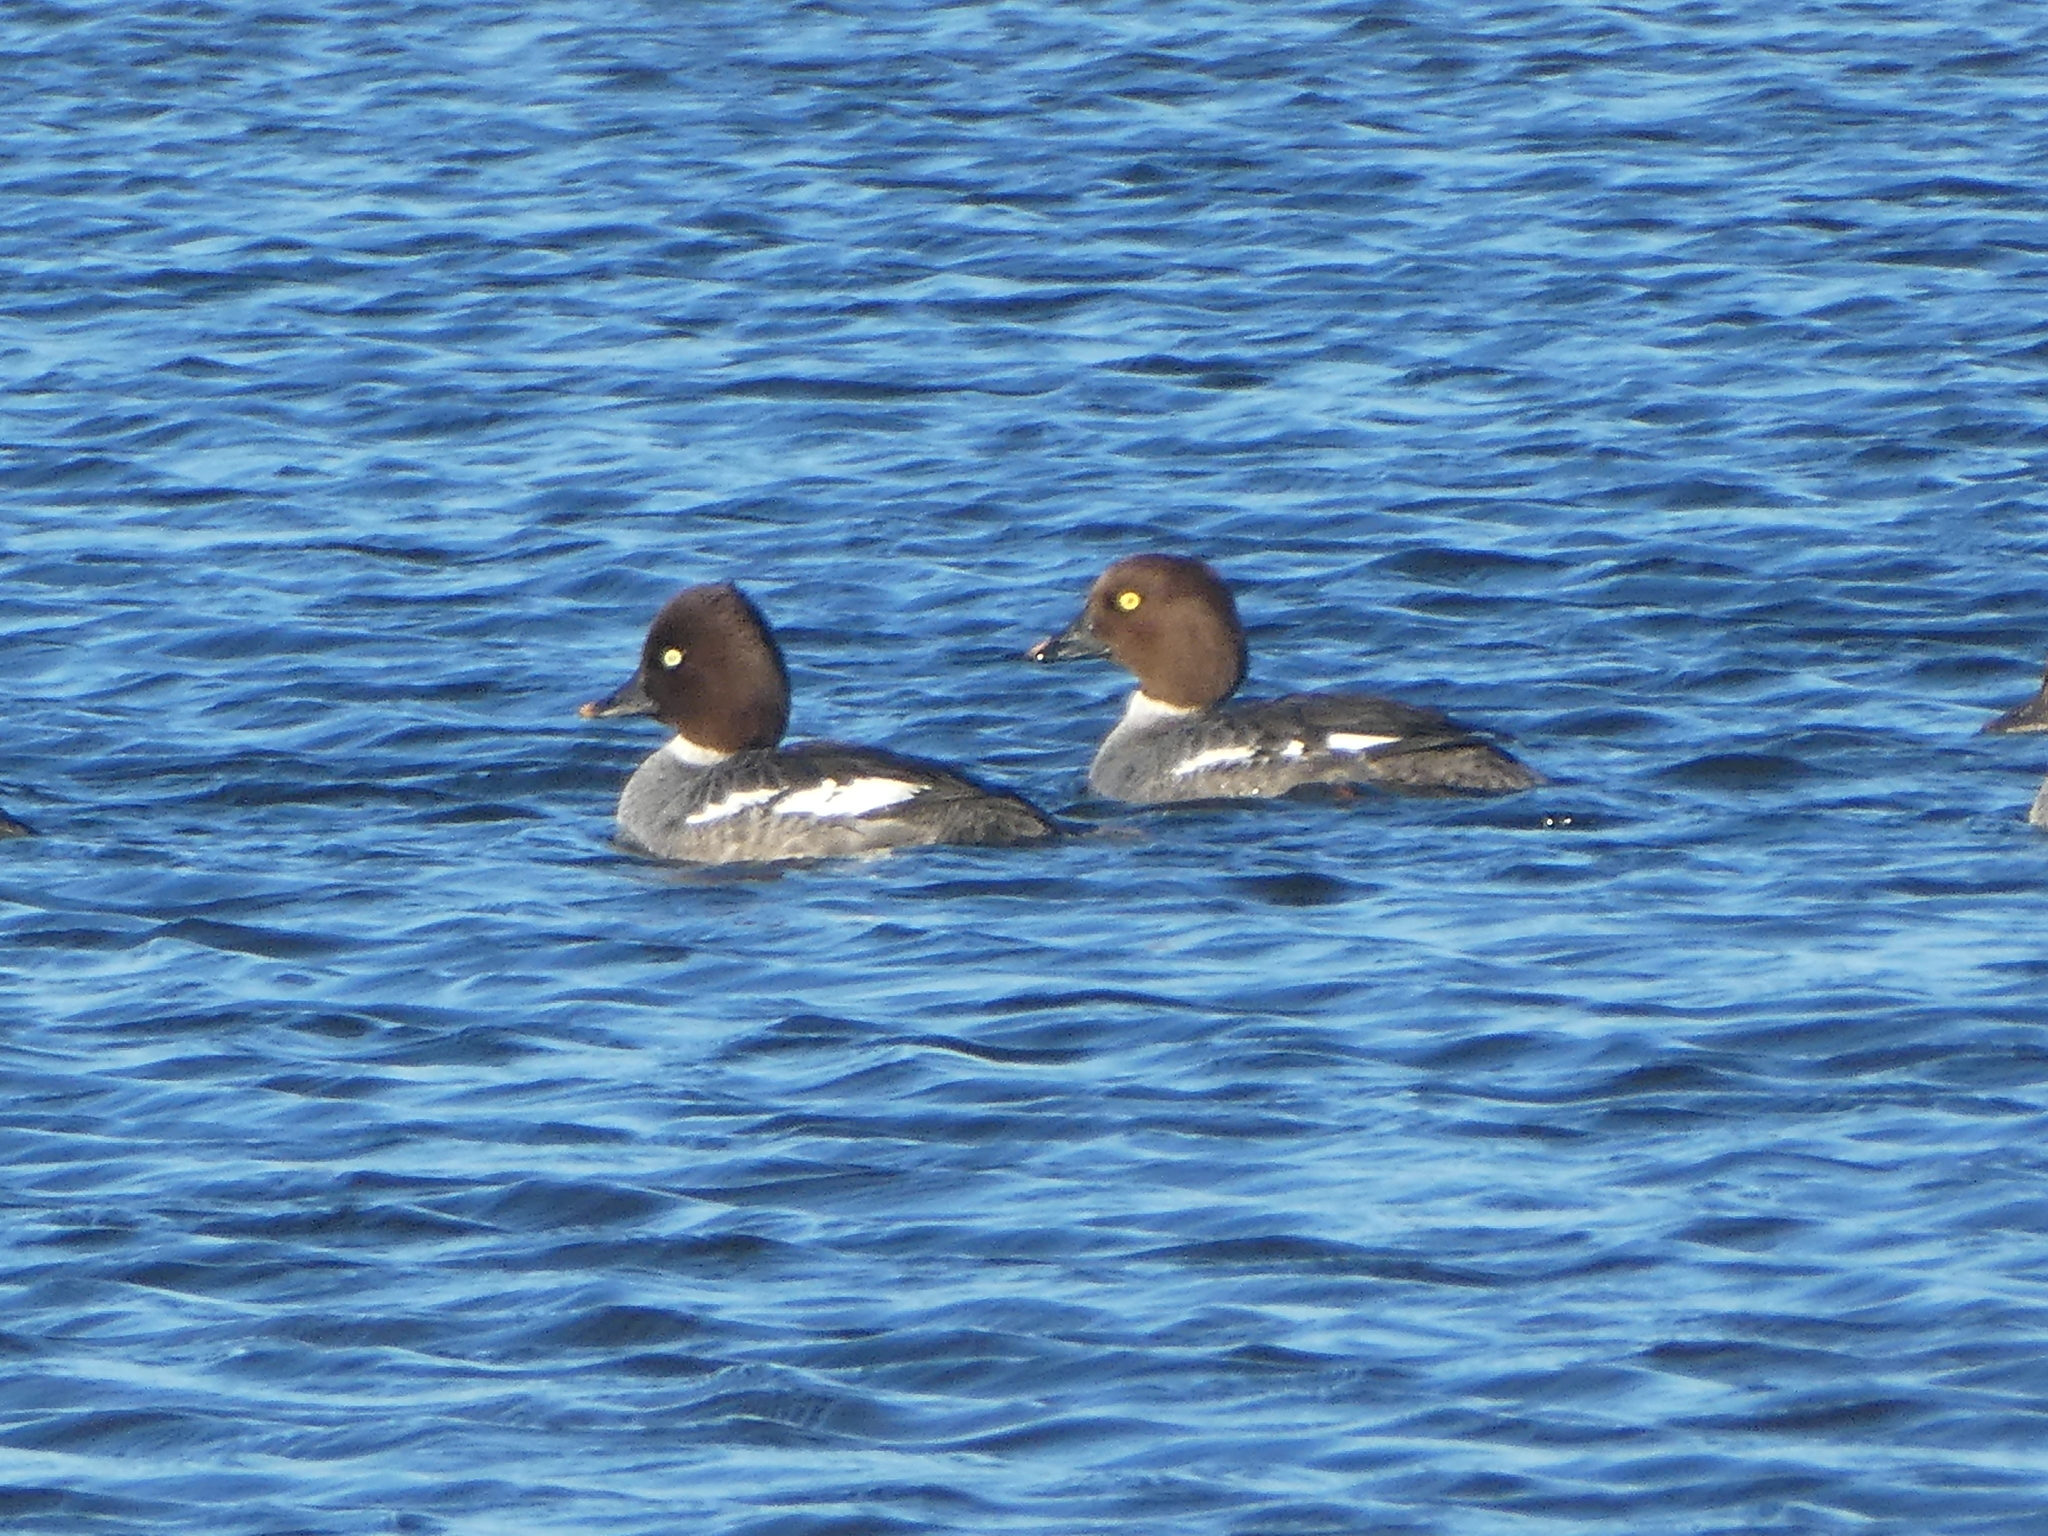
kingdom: Animalia
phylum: Chordata
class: Aves
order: Anseriformes
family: Anatidae
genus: Bucephala
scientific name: Bucephala clangula
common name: Common goldeneye
